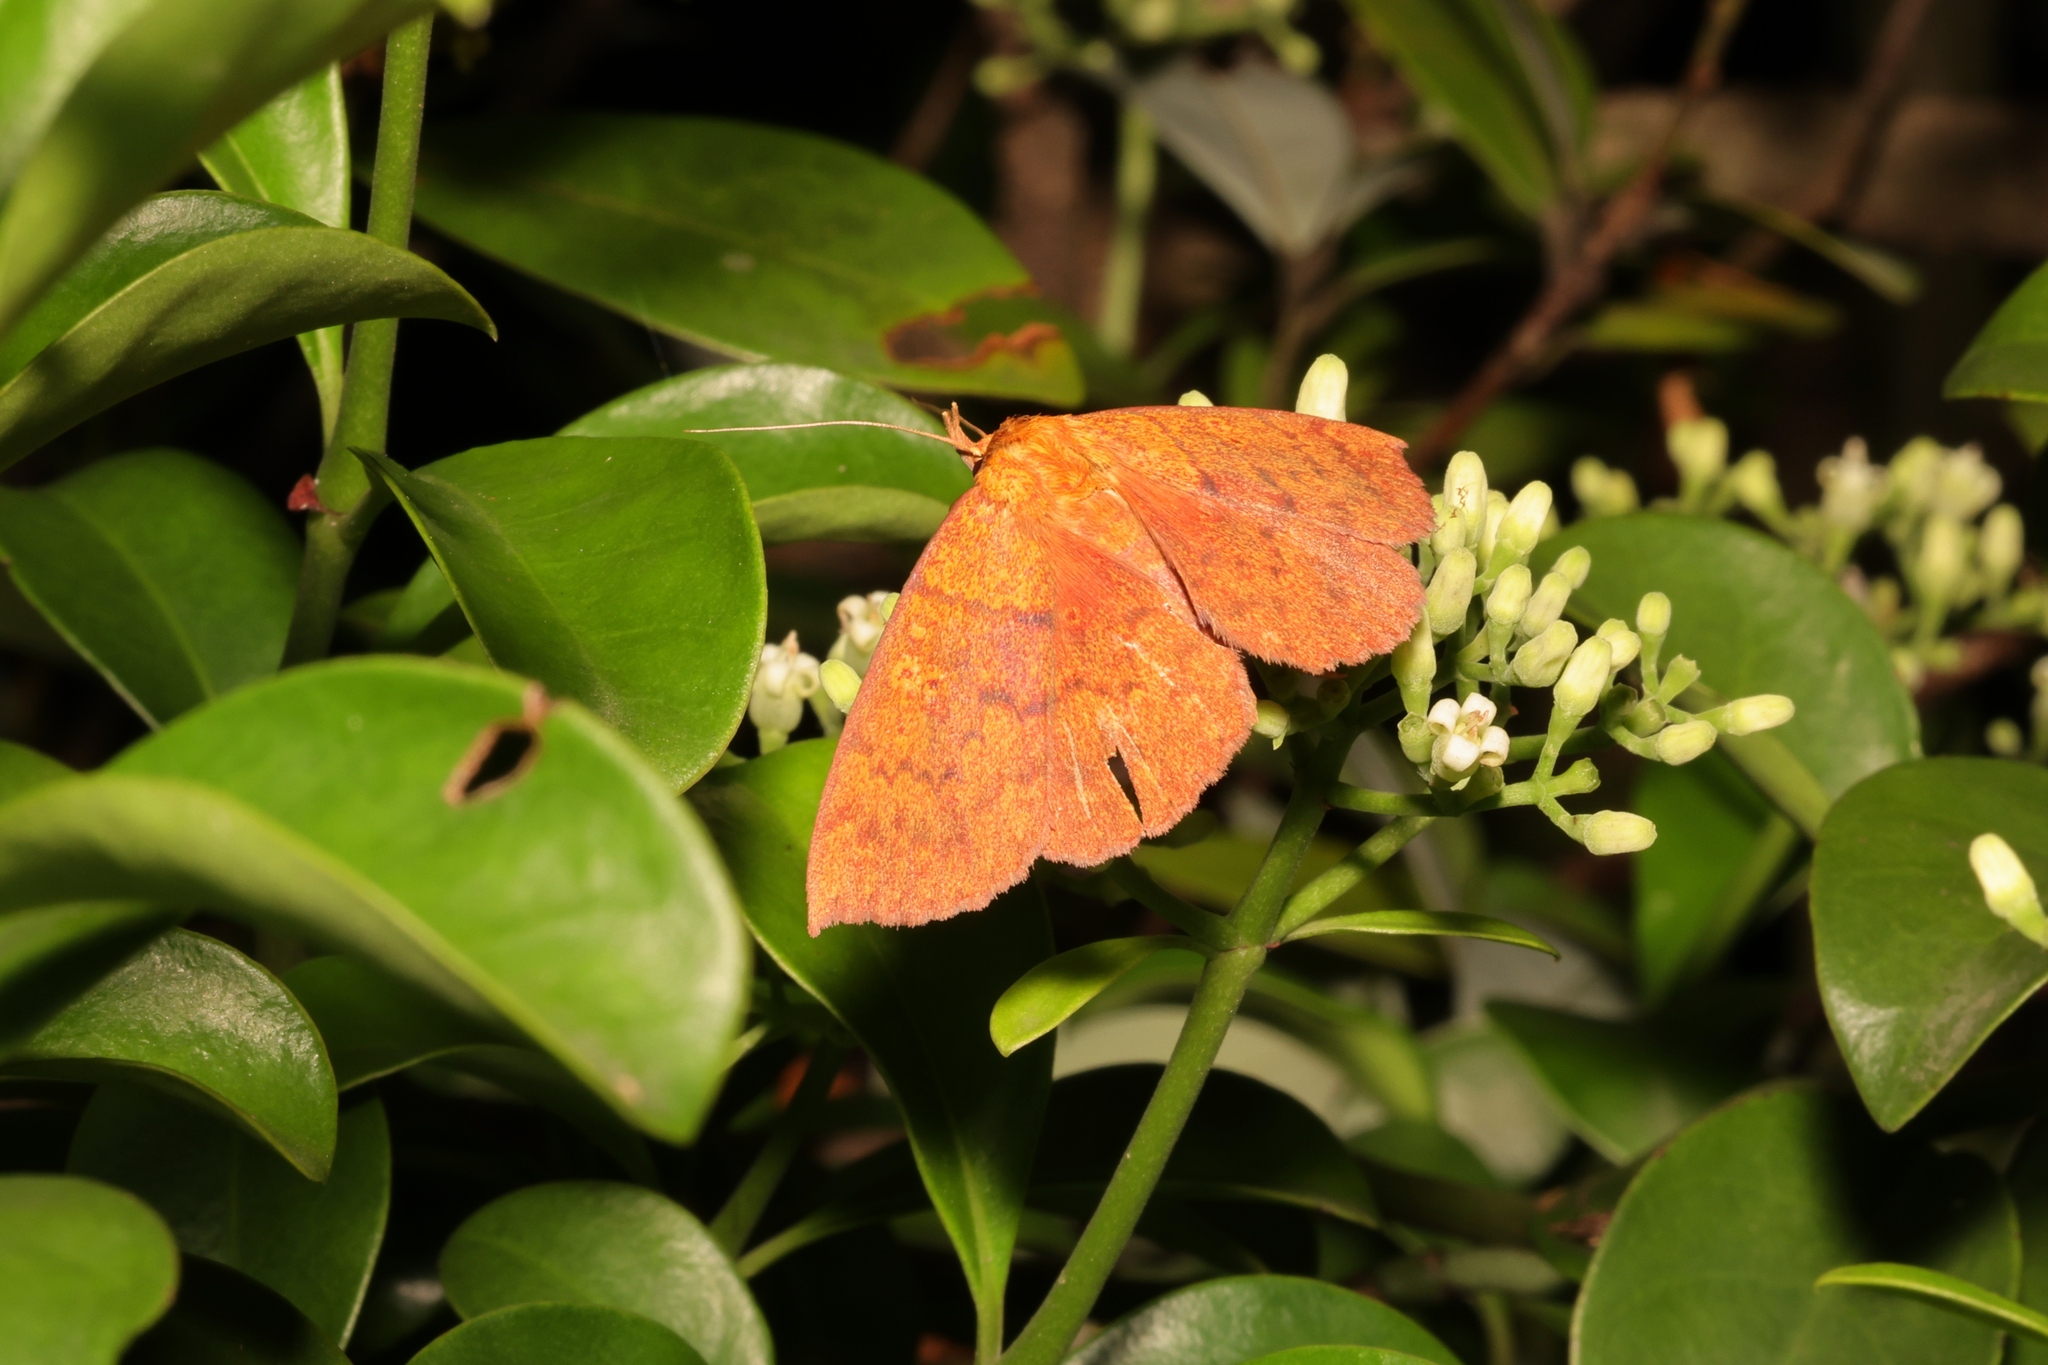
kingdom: Animalia
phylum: Arthropoda
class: Insecta
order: Lepidoptera
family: Erebidae
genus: Singara
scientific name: Singara diversalis
